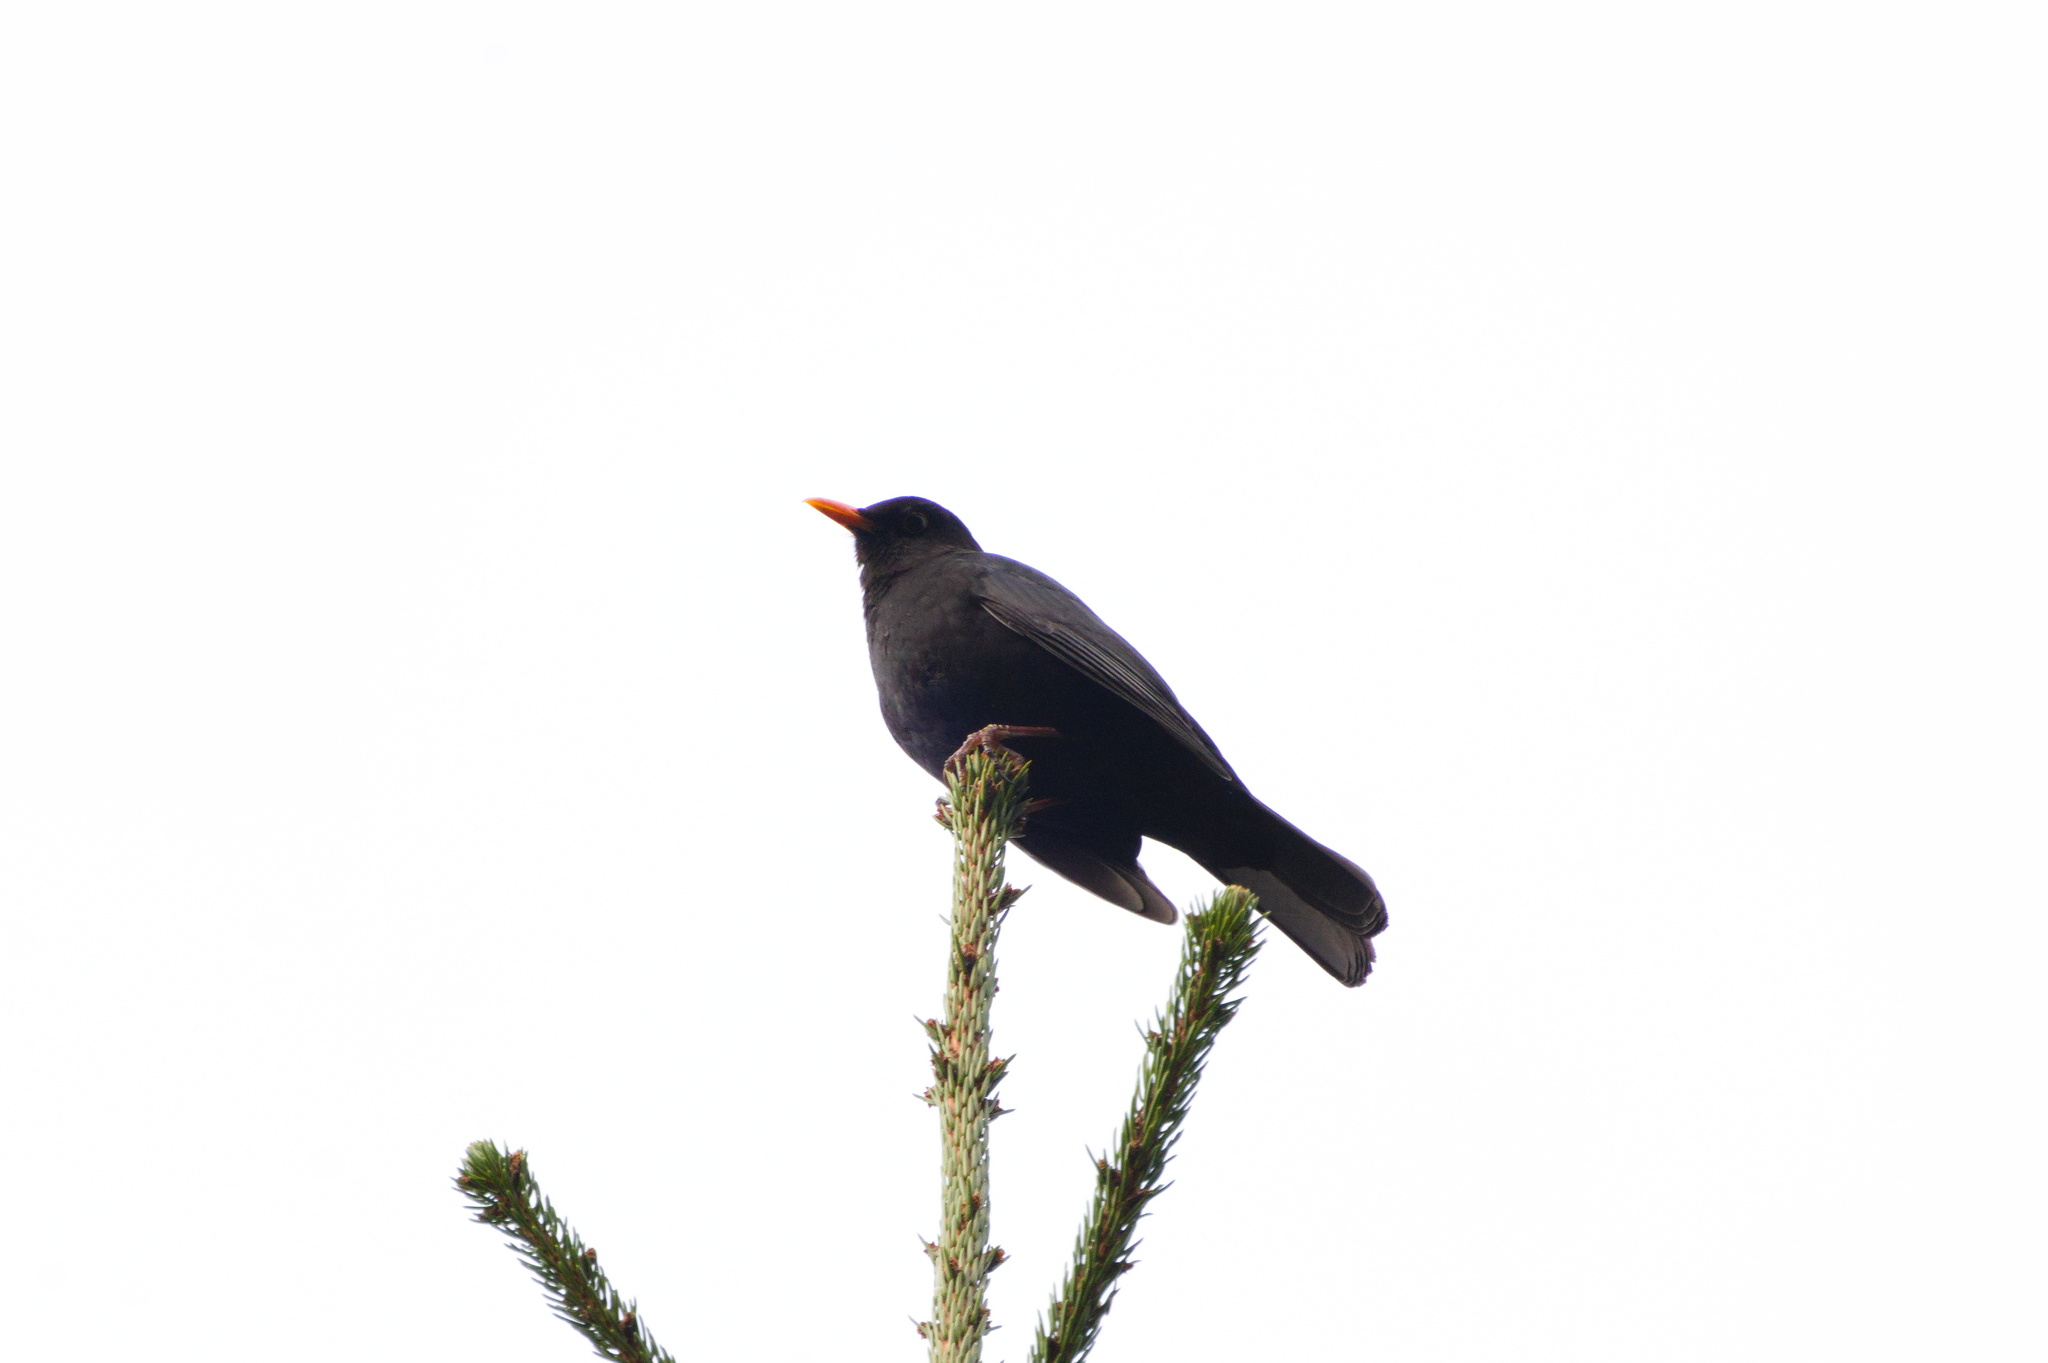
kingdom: Animalia
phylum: Chordata
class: Aves
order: Passeriformes
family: Turdidae
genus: Turdus
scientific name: Turdus merula
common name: Common blackbird
